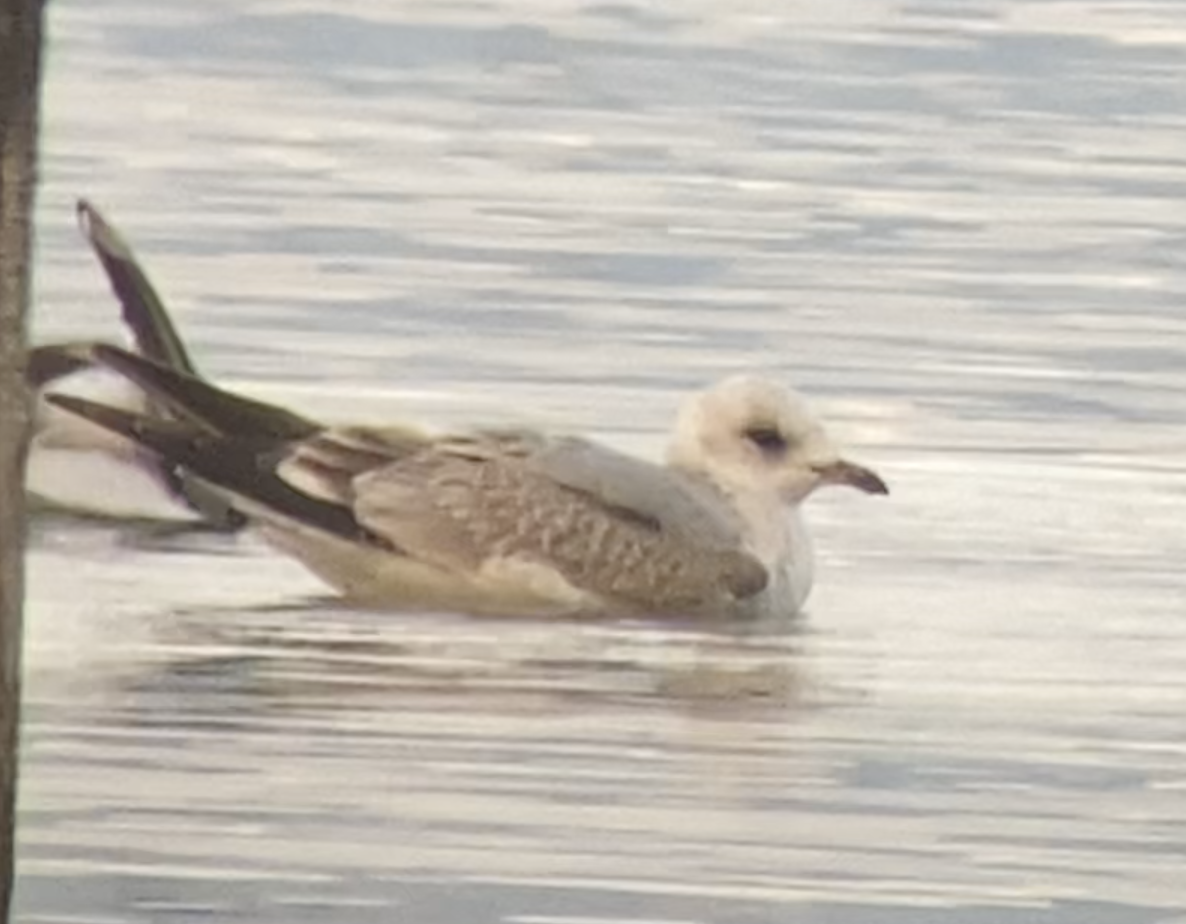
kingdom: Animalia
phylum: Chordata
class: Aves
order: Charadriiformes
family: Laridae
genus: Larus
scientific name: Larus canus
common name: Mew gull
